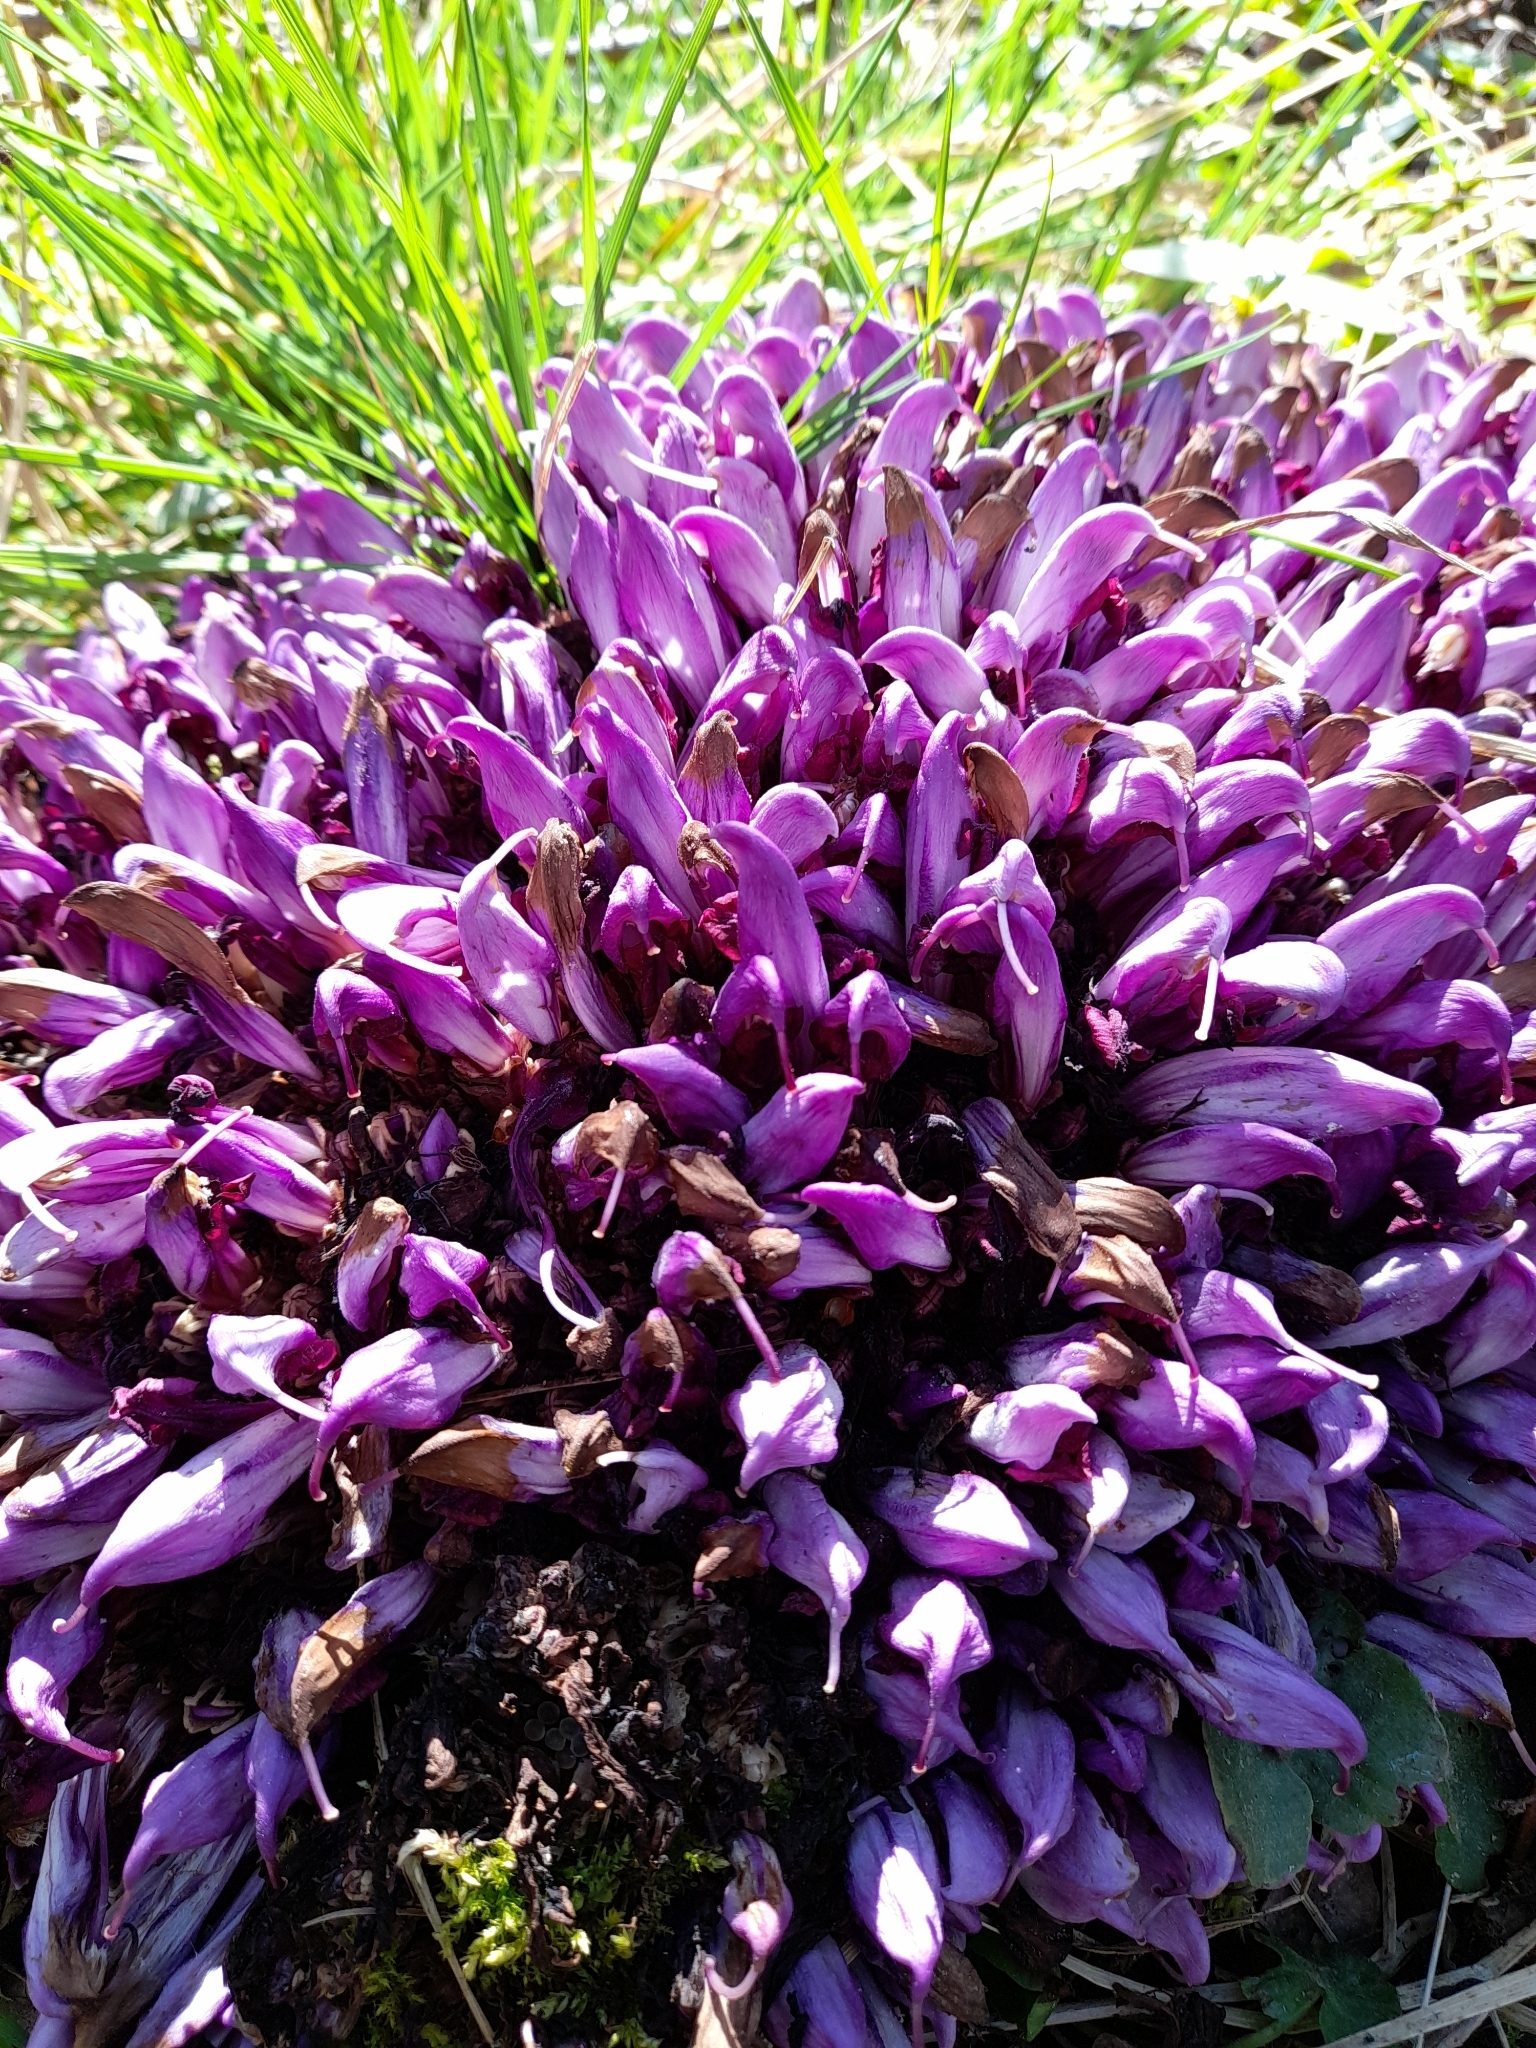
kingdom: Plantae
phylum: Tracheophyta
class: Magnoliopsida
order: Lamiales
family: Orobanchaceae
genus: Lathraea
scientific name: Lathraea clandestina
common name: Purple toothwort
